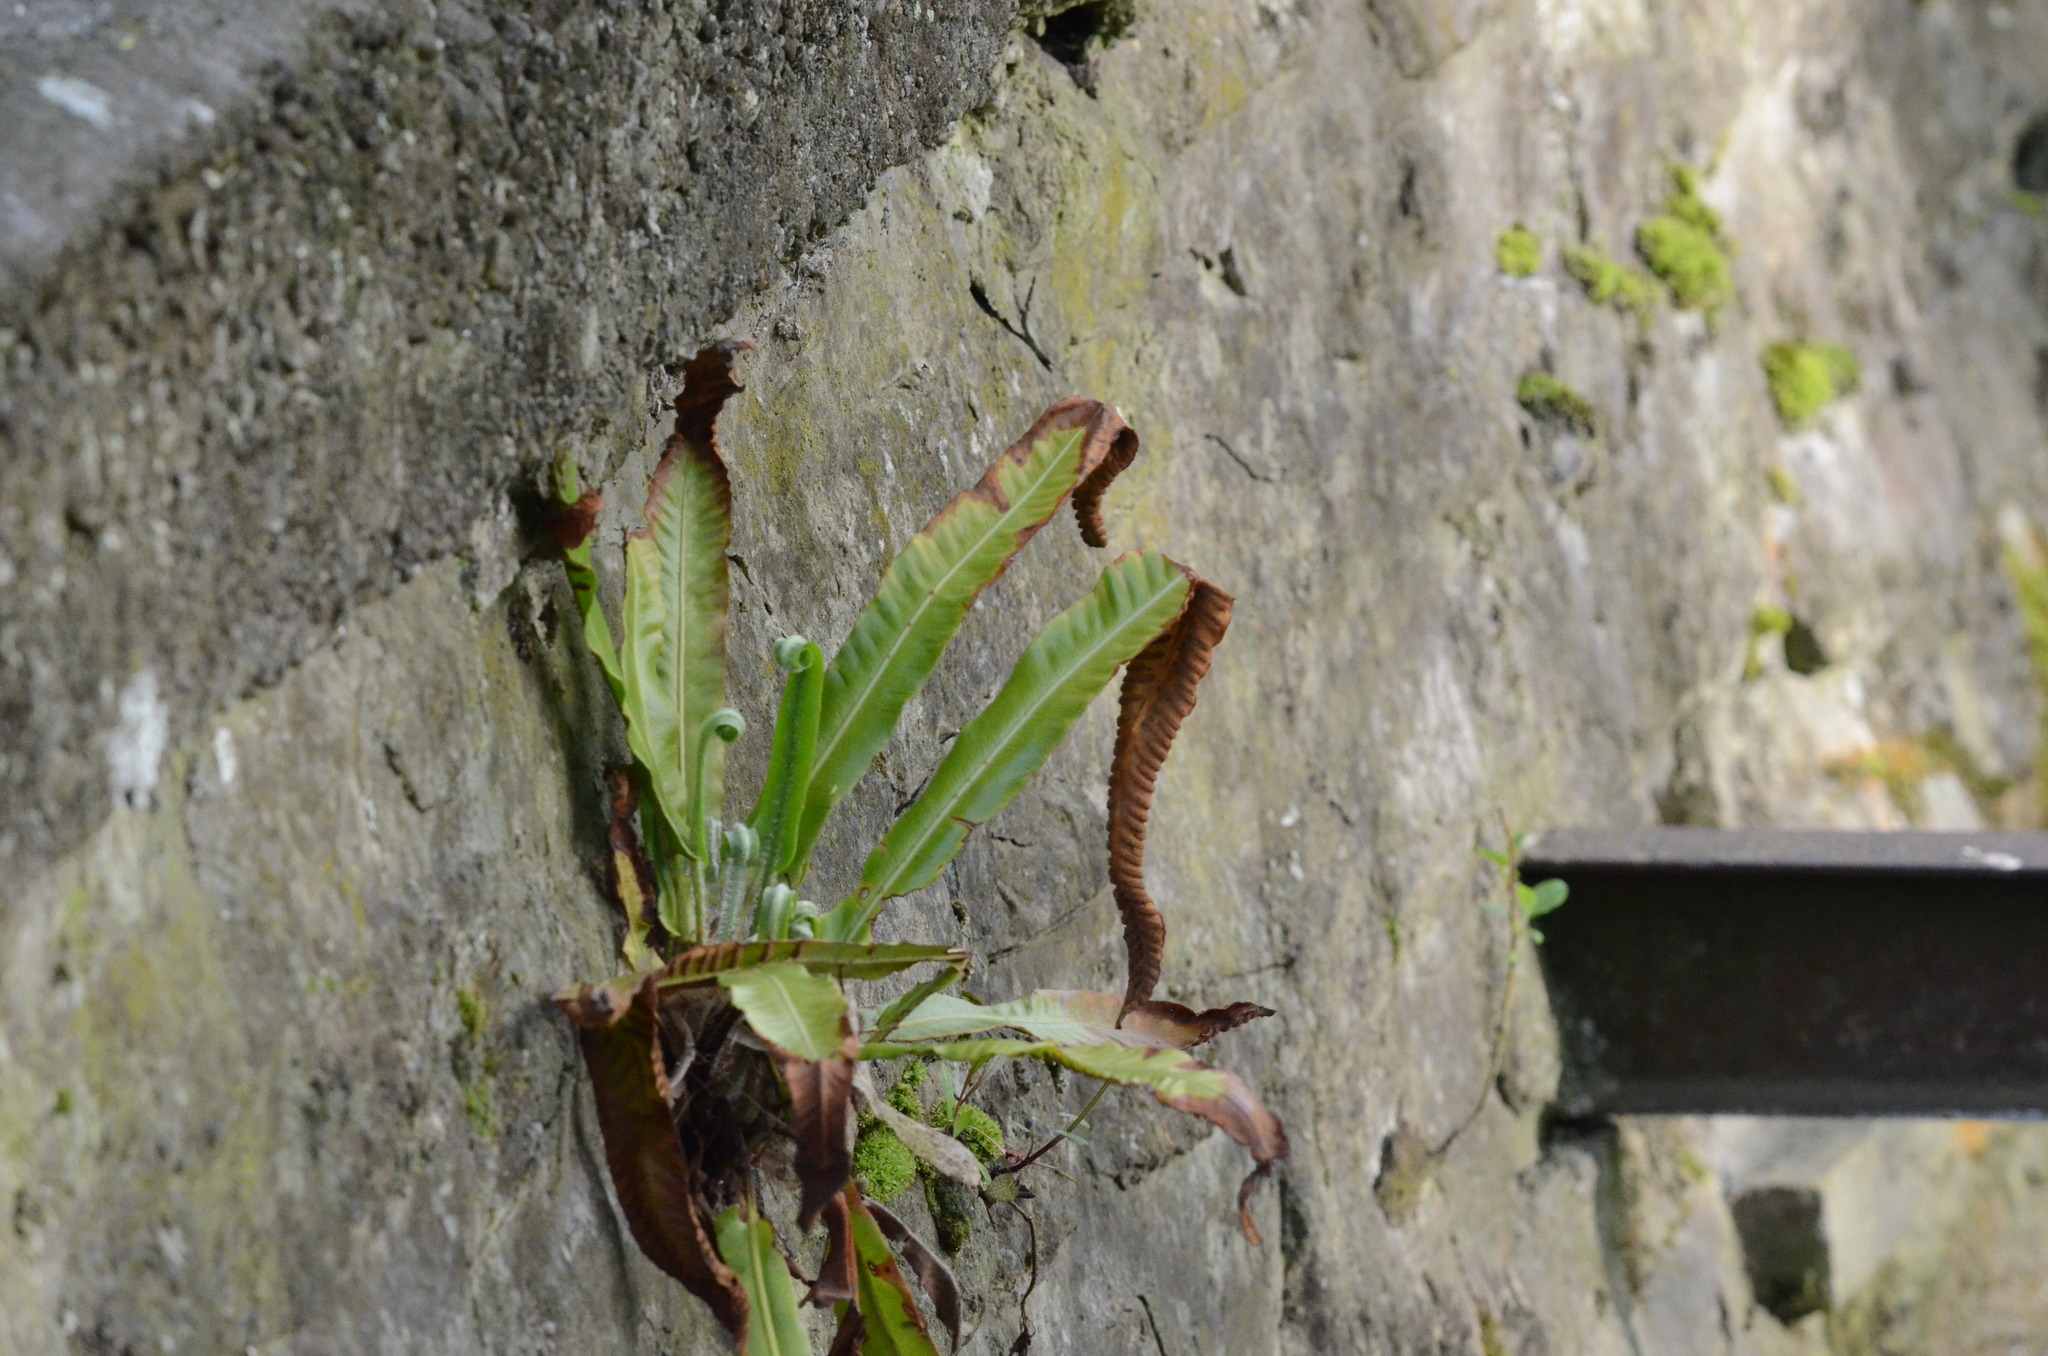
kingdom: Plantae
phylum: Tracheophyta
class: Polypodiopsida
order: Polypodiales
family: Aspleniaceae
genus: Asplenium
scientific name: Asplenium scolopendrium
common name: Hart's-tongue fern
